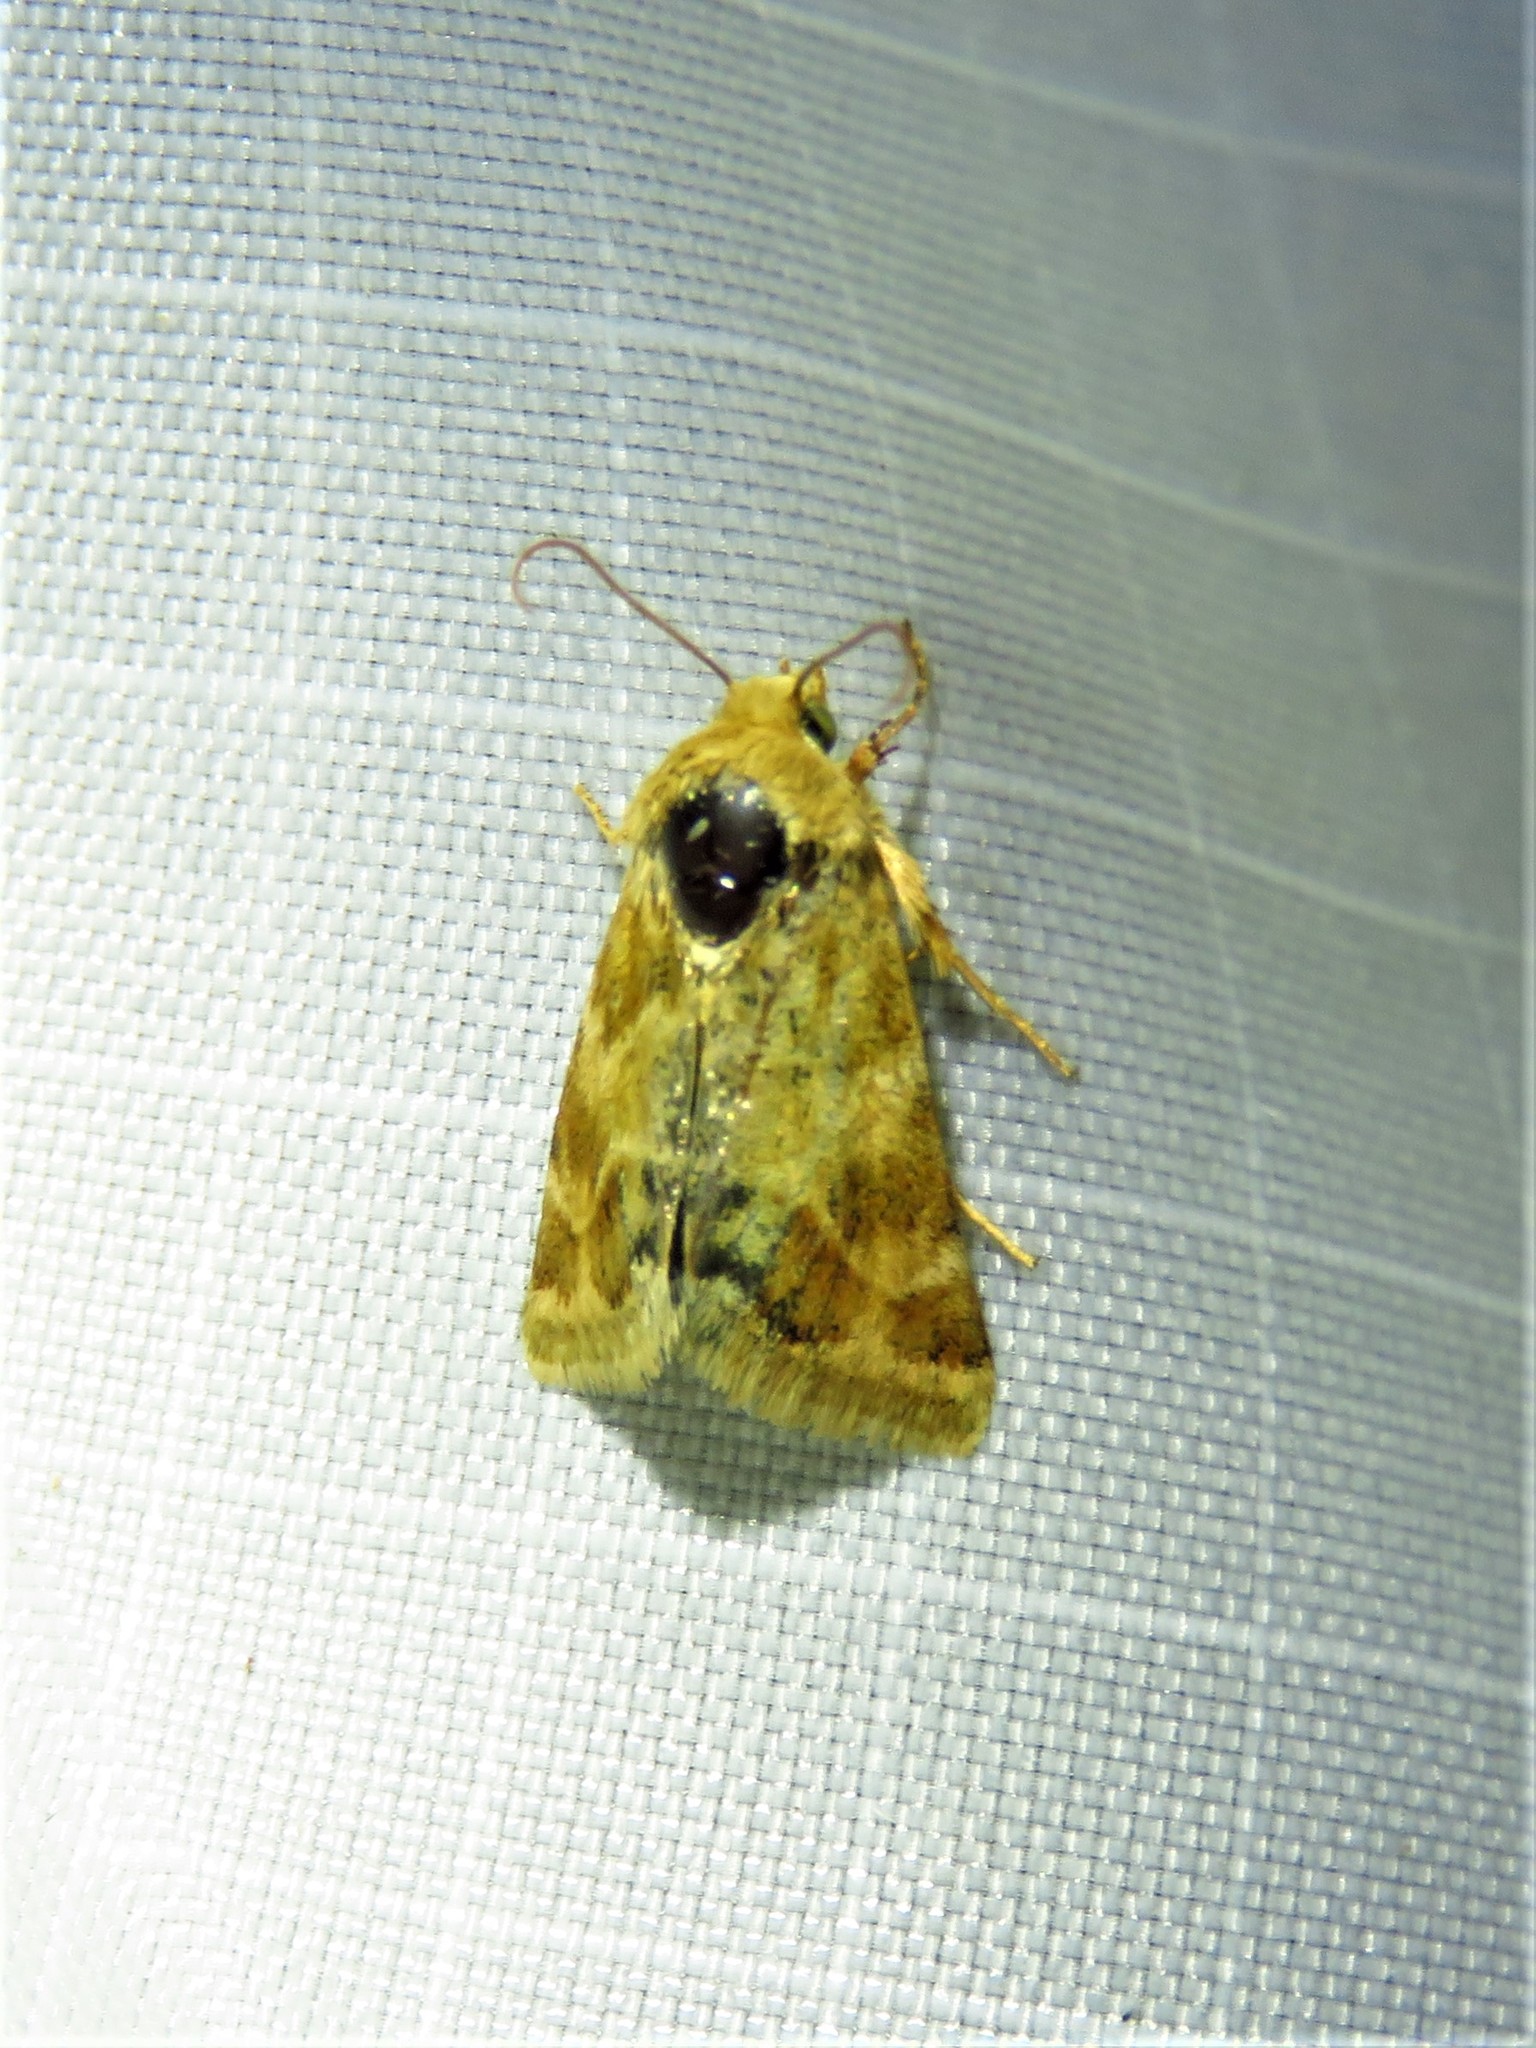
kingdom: Animalia
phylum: Arthropoda
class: Insecta
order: Lepidoptera
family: Noctuidae
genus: Schinia
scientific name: Schinia lynx
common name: Lynx flower moth
